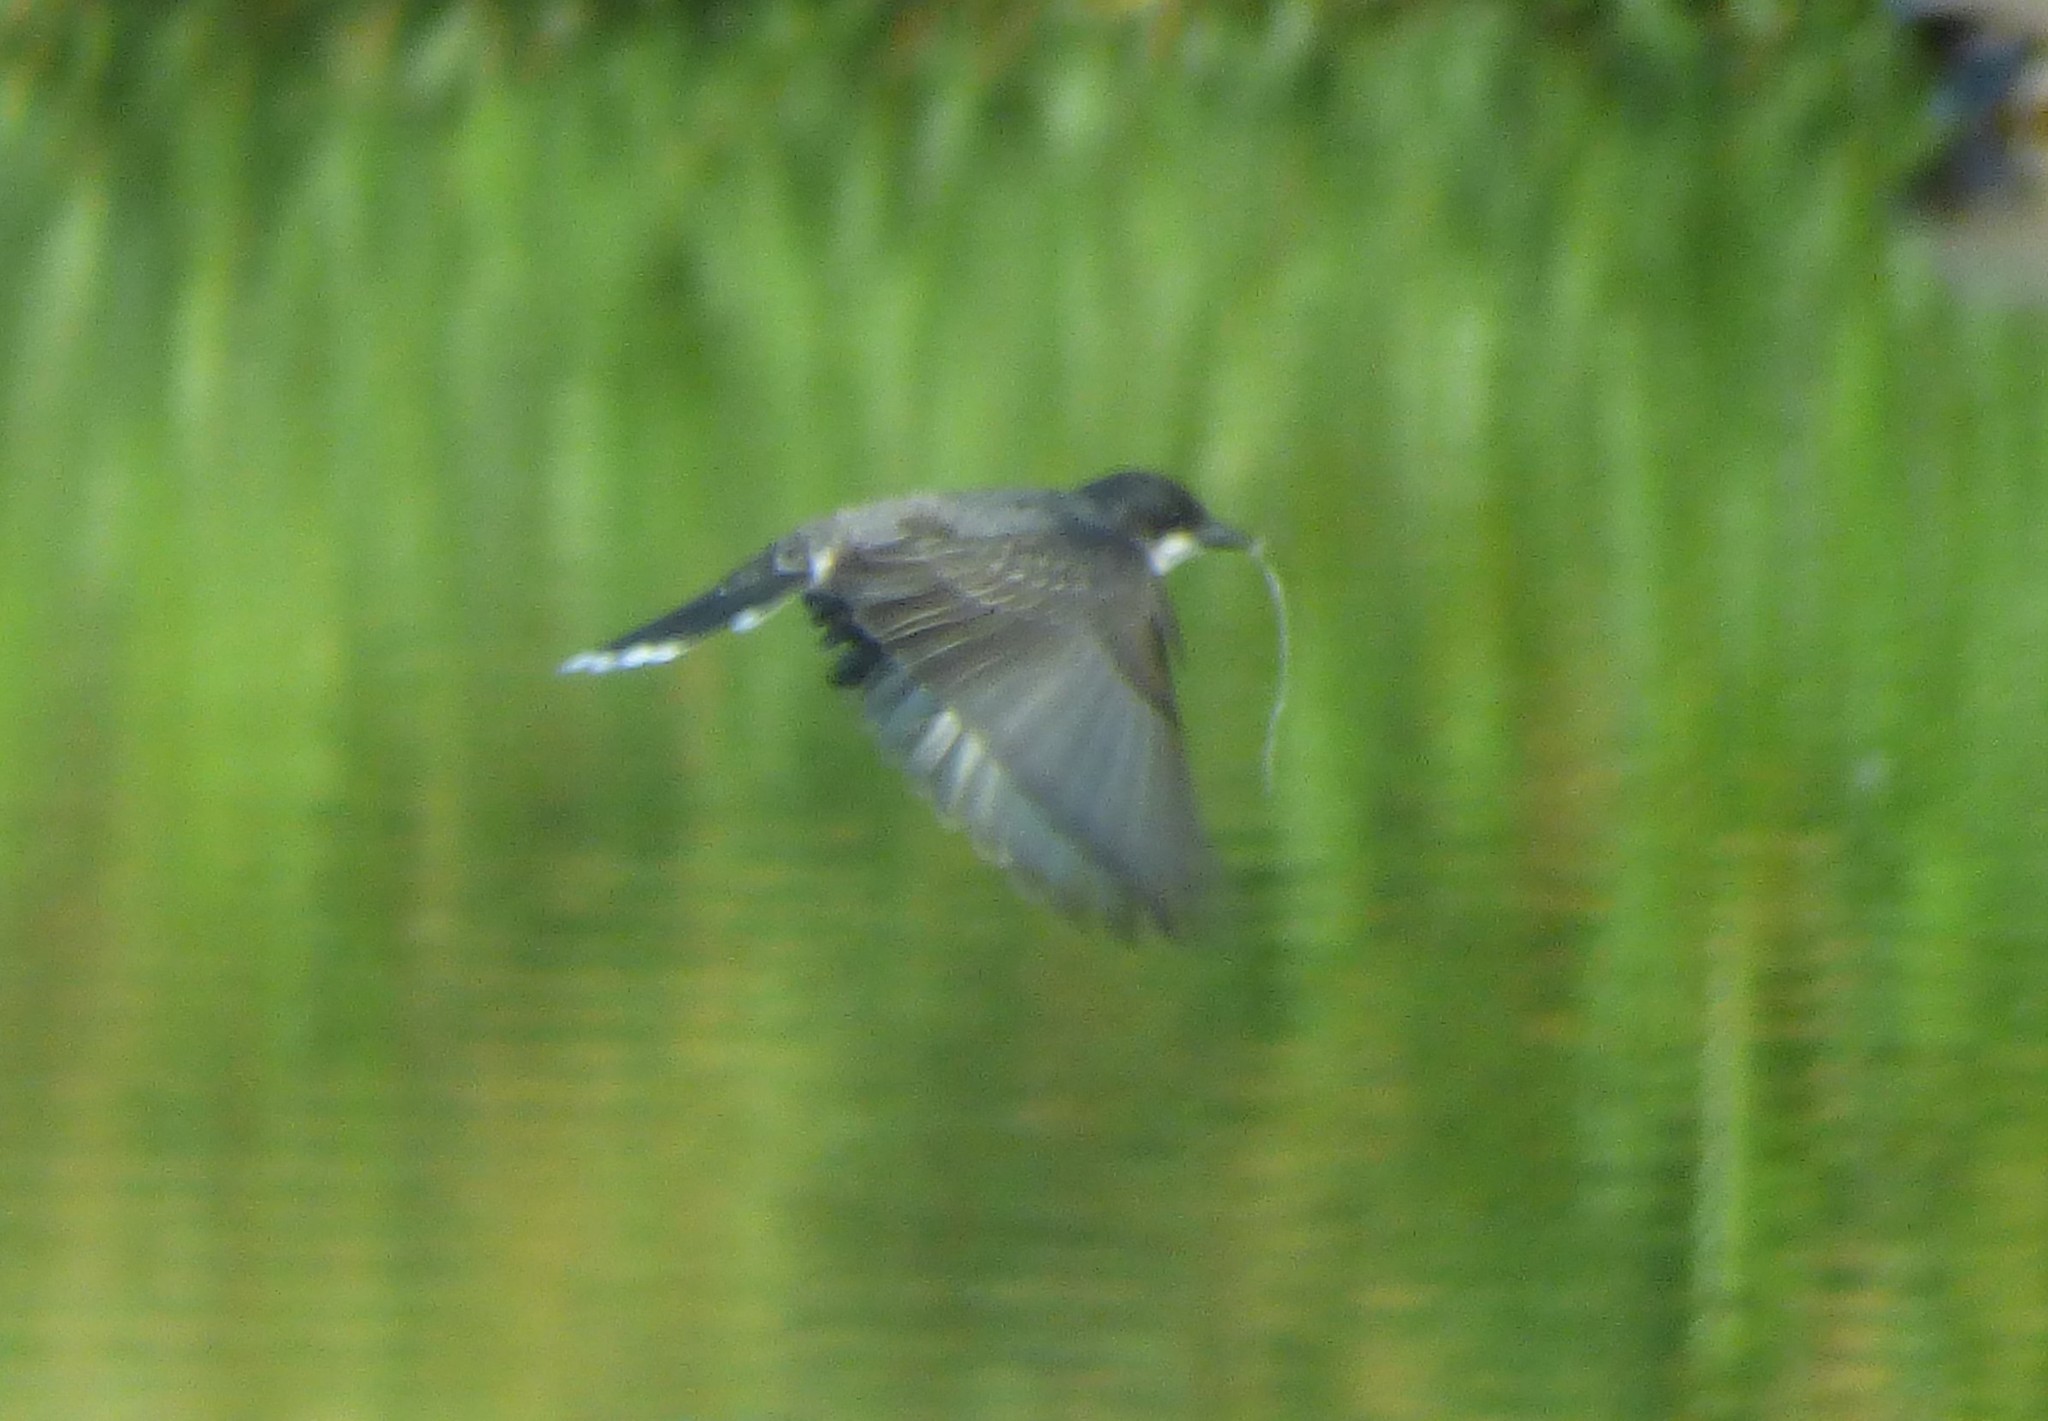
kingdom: Animalia
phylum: Chordata
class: Aves
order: Passeriformes
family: Tyrannidae
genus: Tyrannus
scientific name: Tyrannus tyrannus
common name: Eastern kingbird
